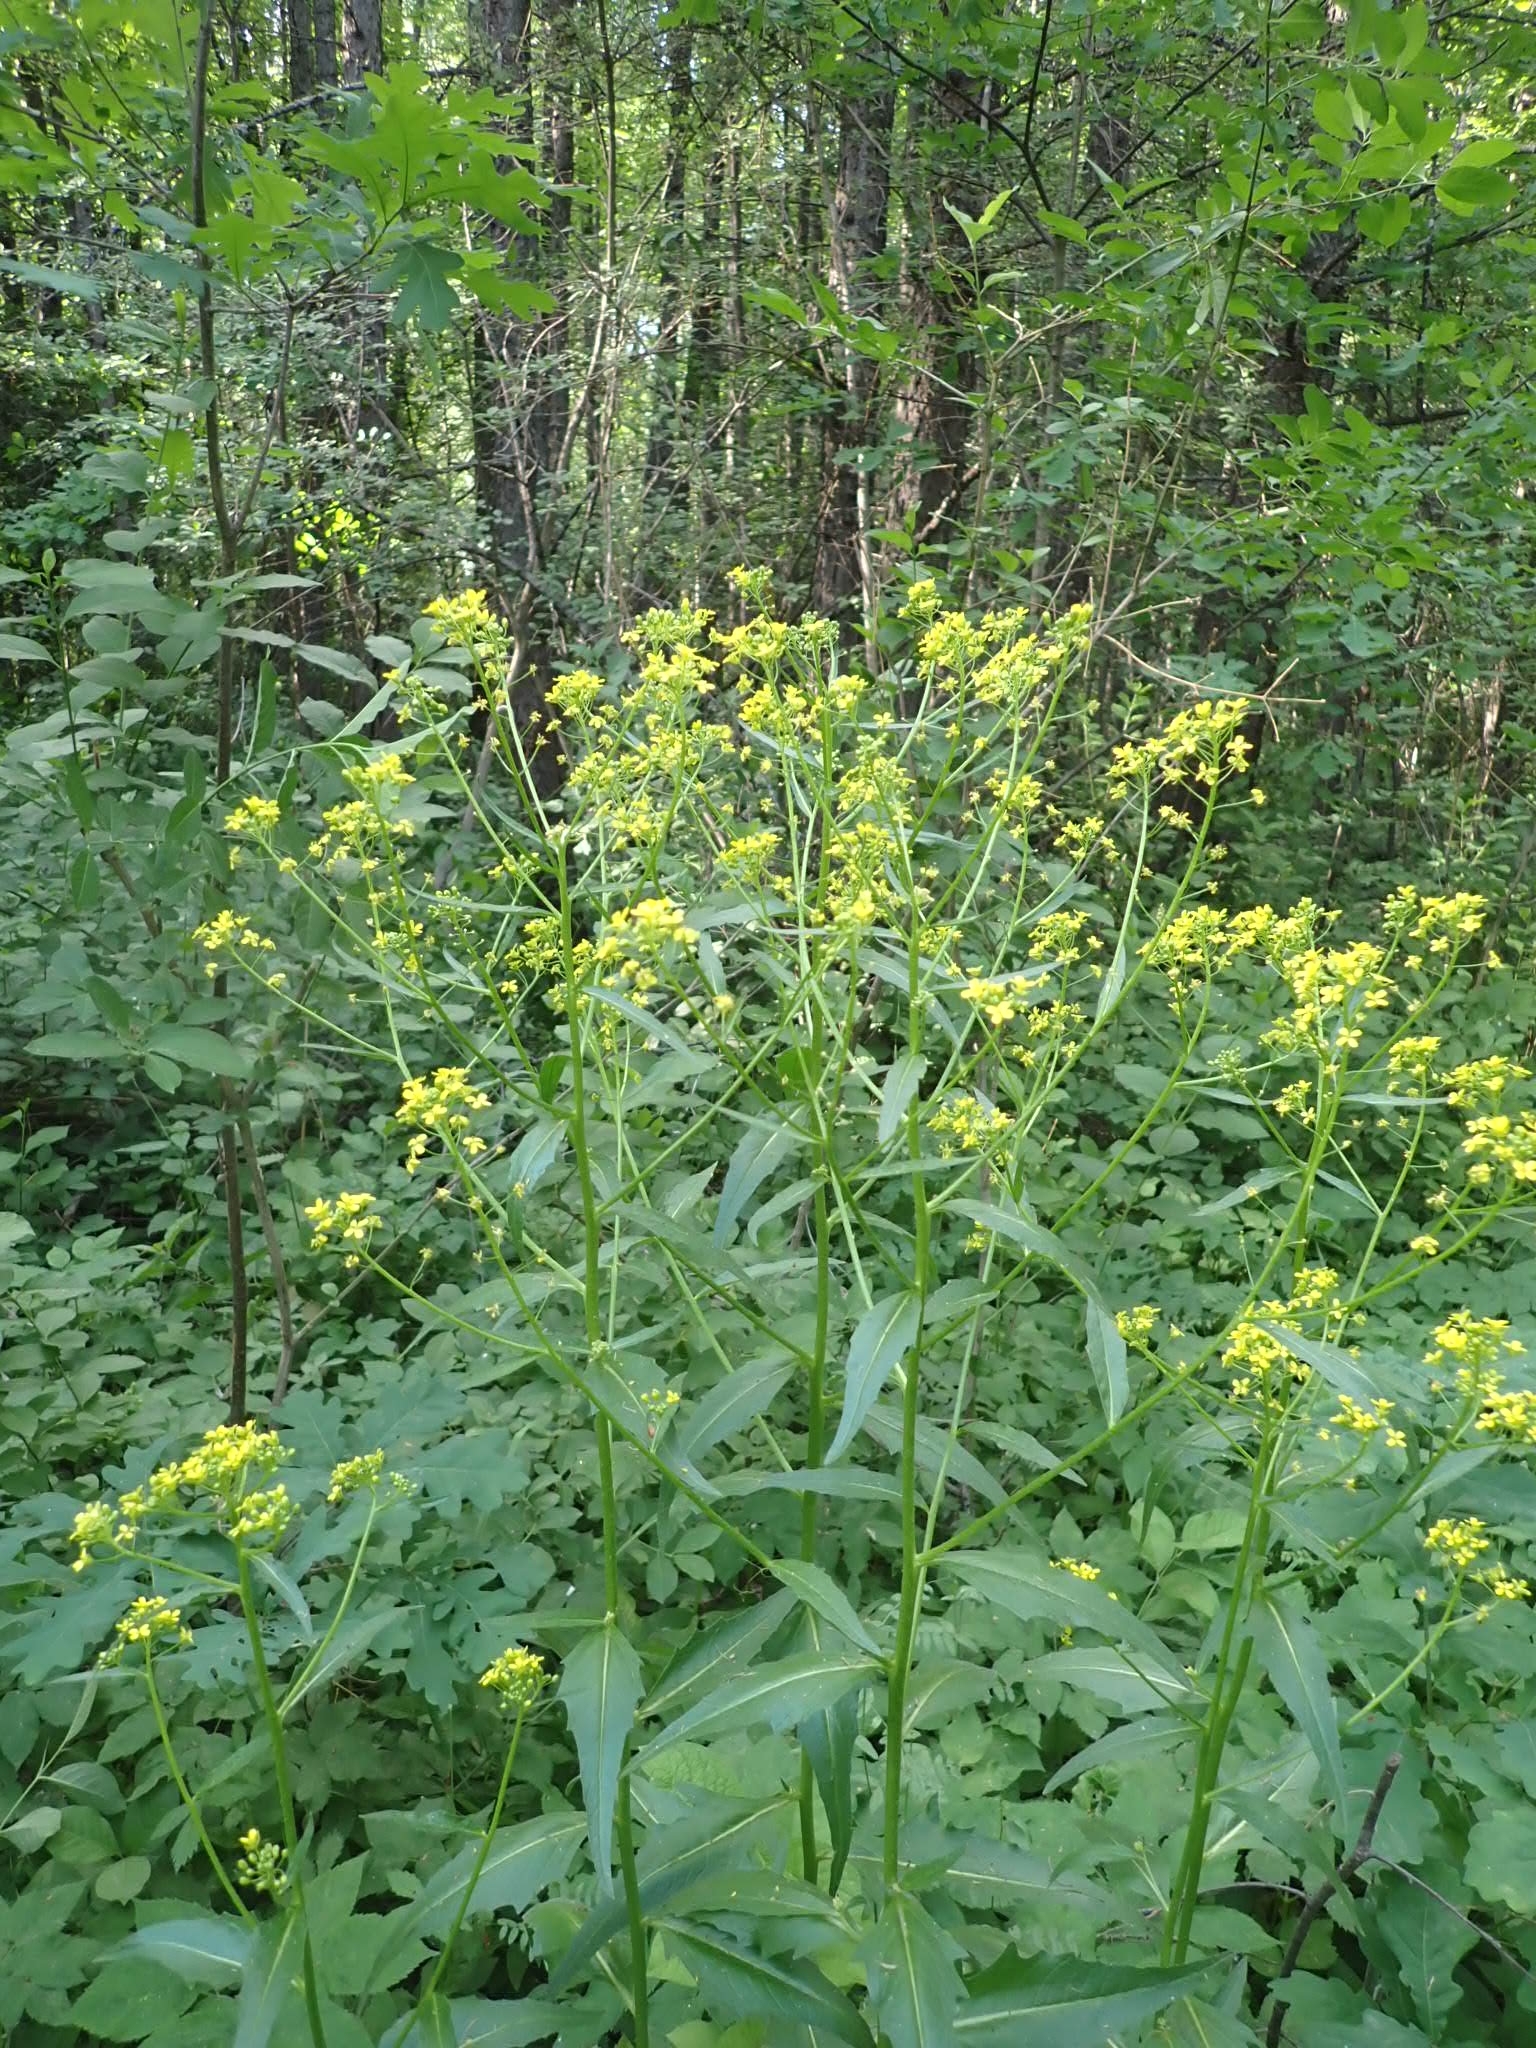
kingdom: Plantae
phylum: Tracheophyta
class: Magnoliopsida
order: Brassicales
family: Brassicaceae
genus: Bunias
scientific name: Bunias orientalis
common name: Warty-cabbage
